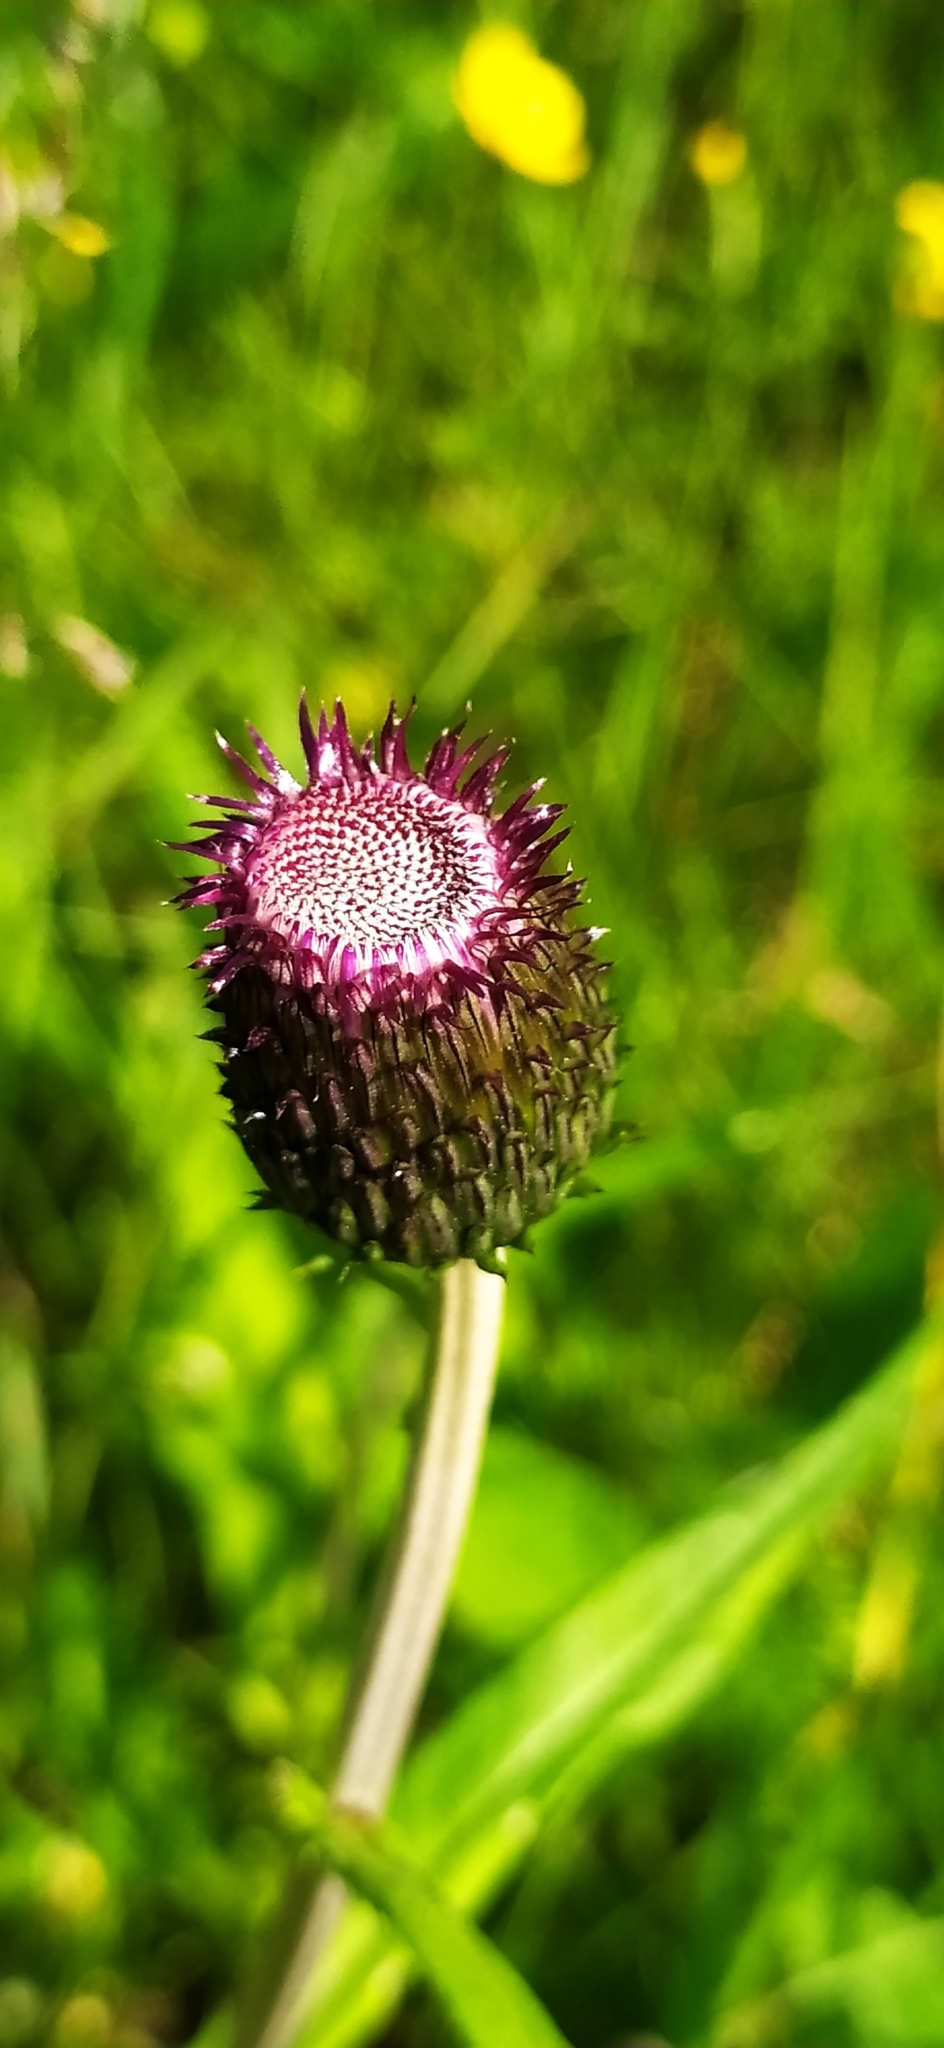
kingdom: Plantae
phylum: Tracheophyta
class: Magnoliopsida
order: Asterales
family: Asteraceae
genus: Cirsium
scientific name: Cirsium heterophyllum
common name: Melancholy thistle
